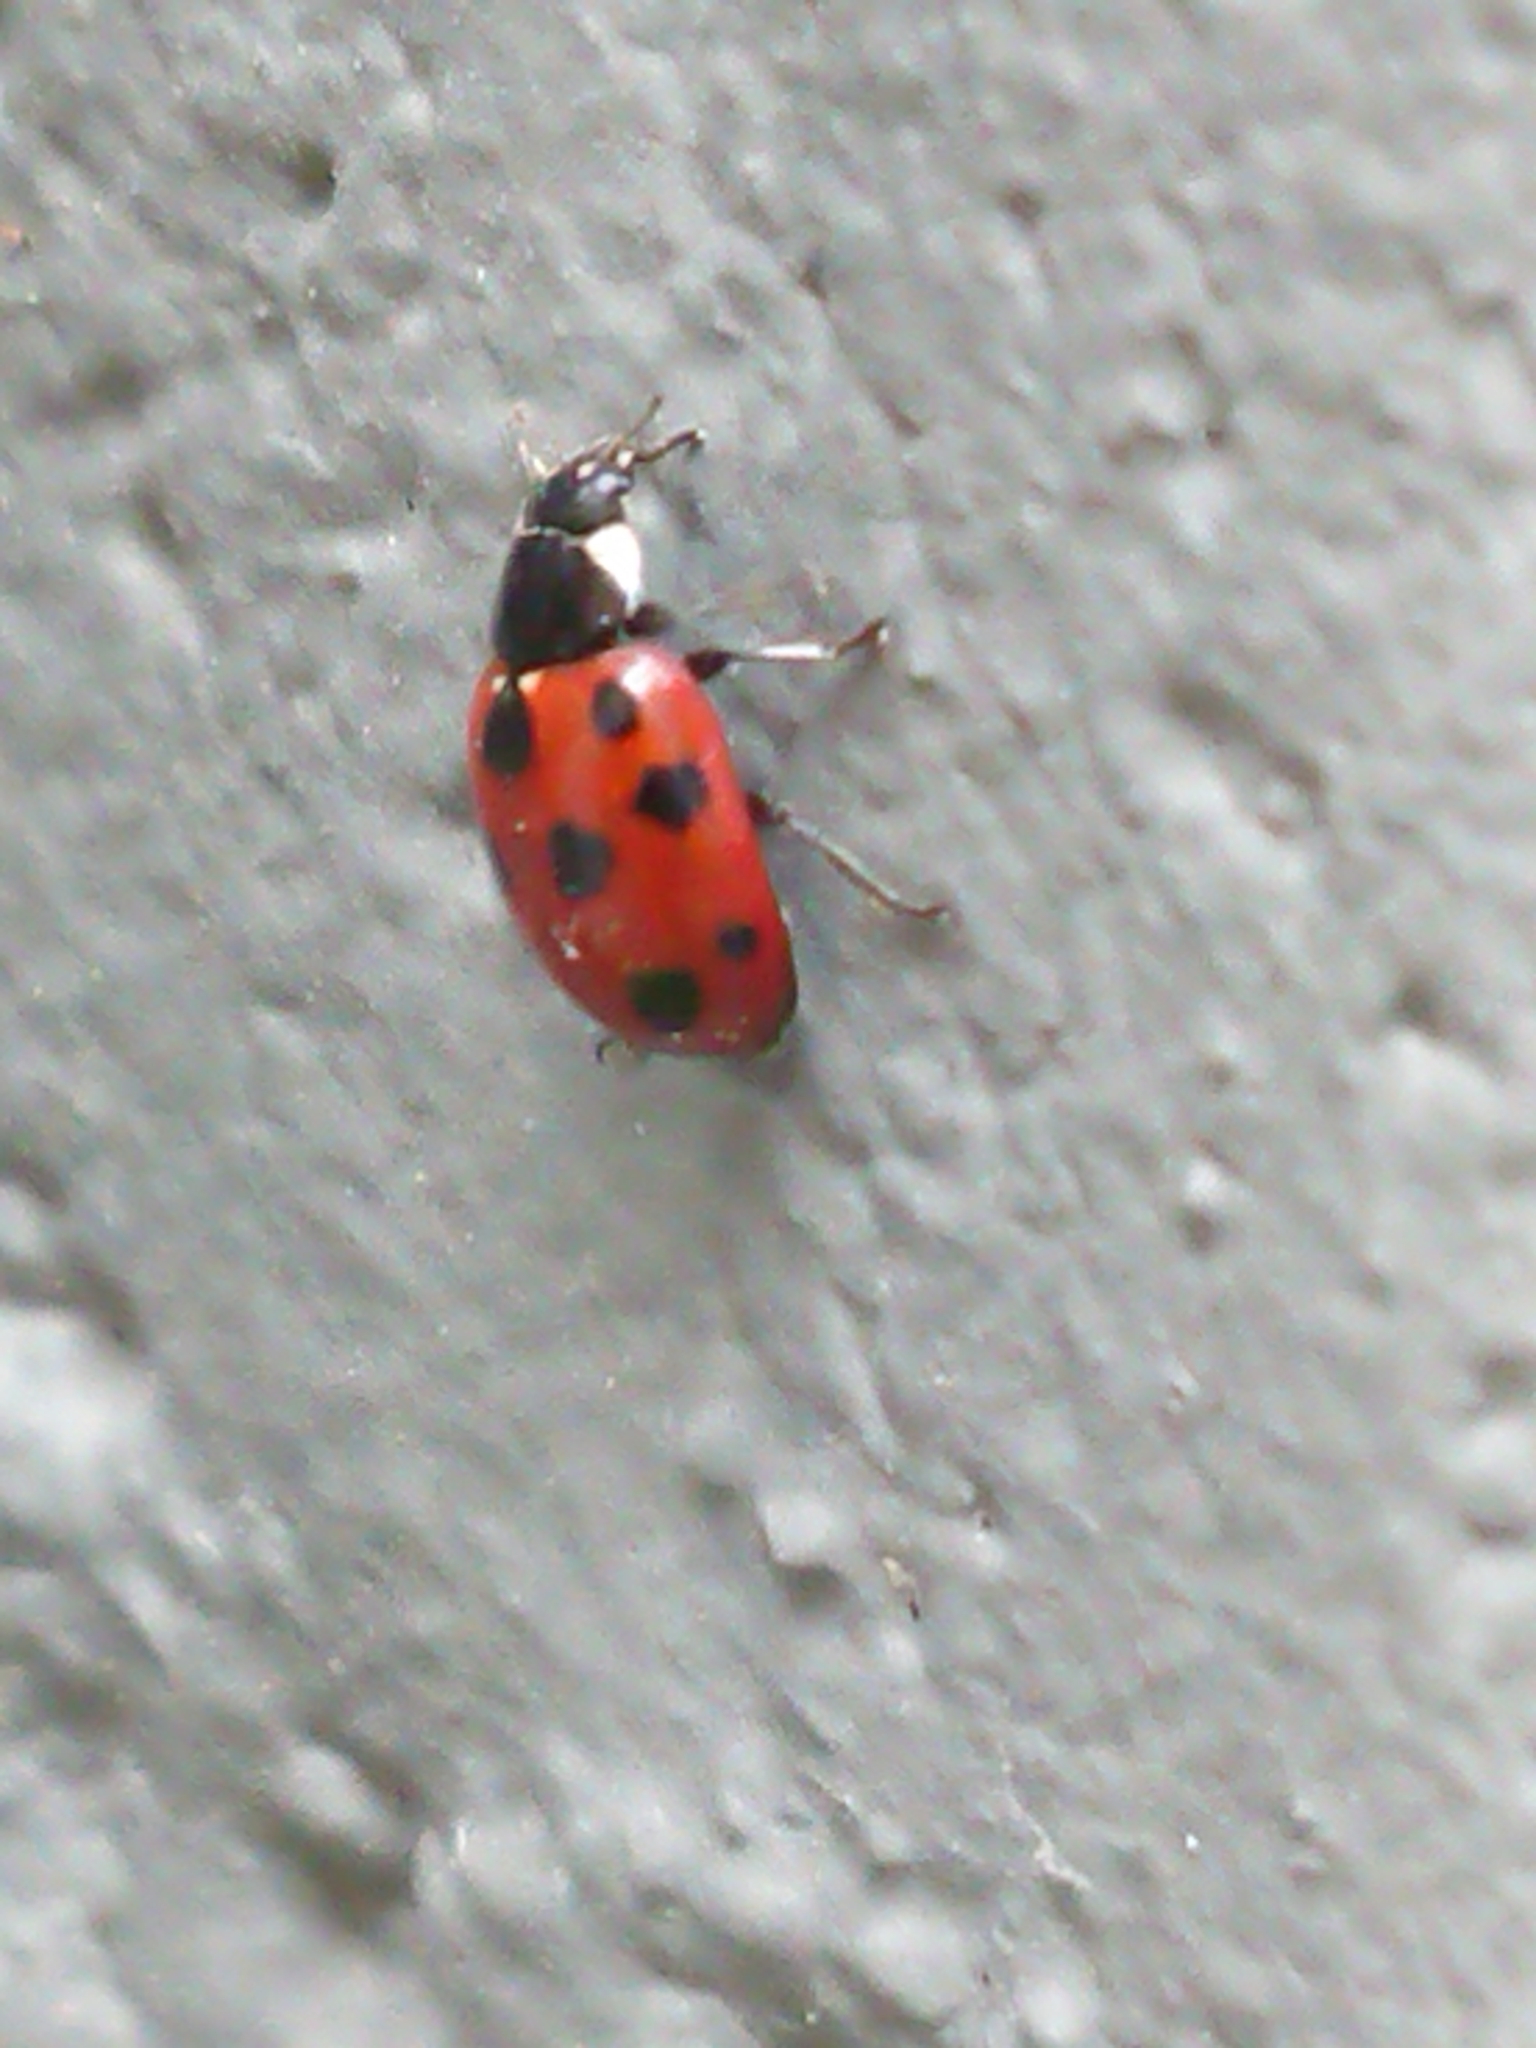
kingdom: Animalia
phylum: Arthropoda
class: Insecta
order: Coleoptera
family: Coccinellidae
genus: Coccinella
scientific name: Coccinella undecimpunctata
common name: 11-spot ladybird
